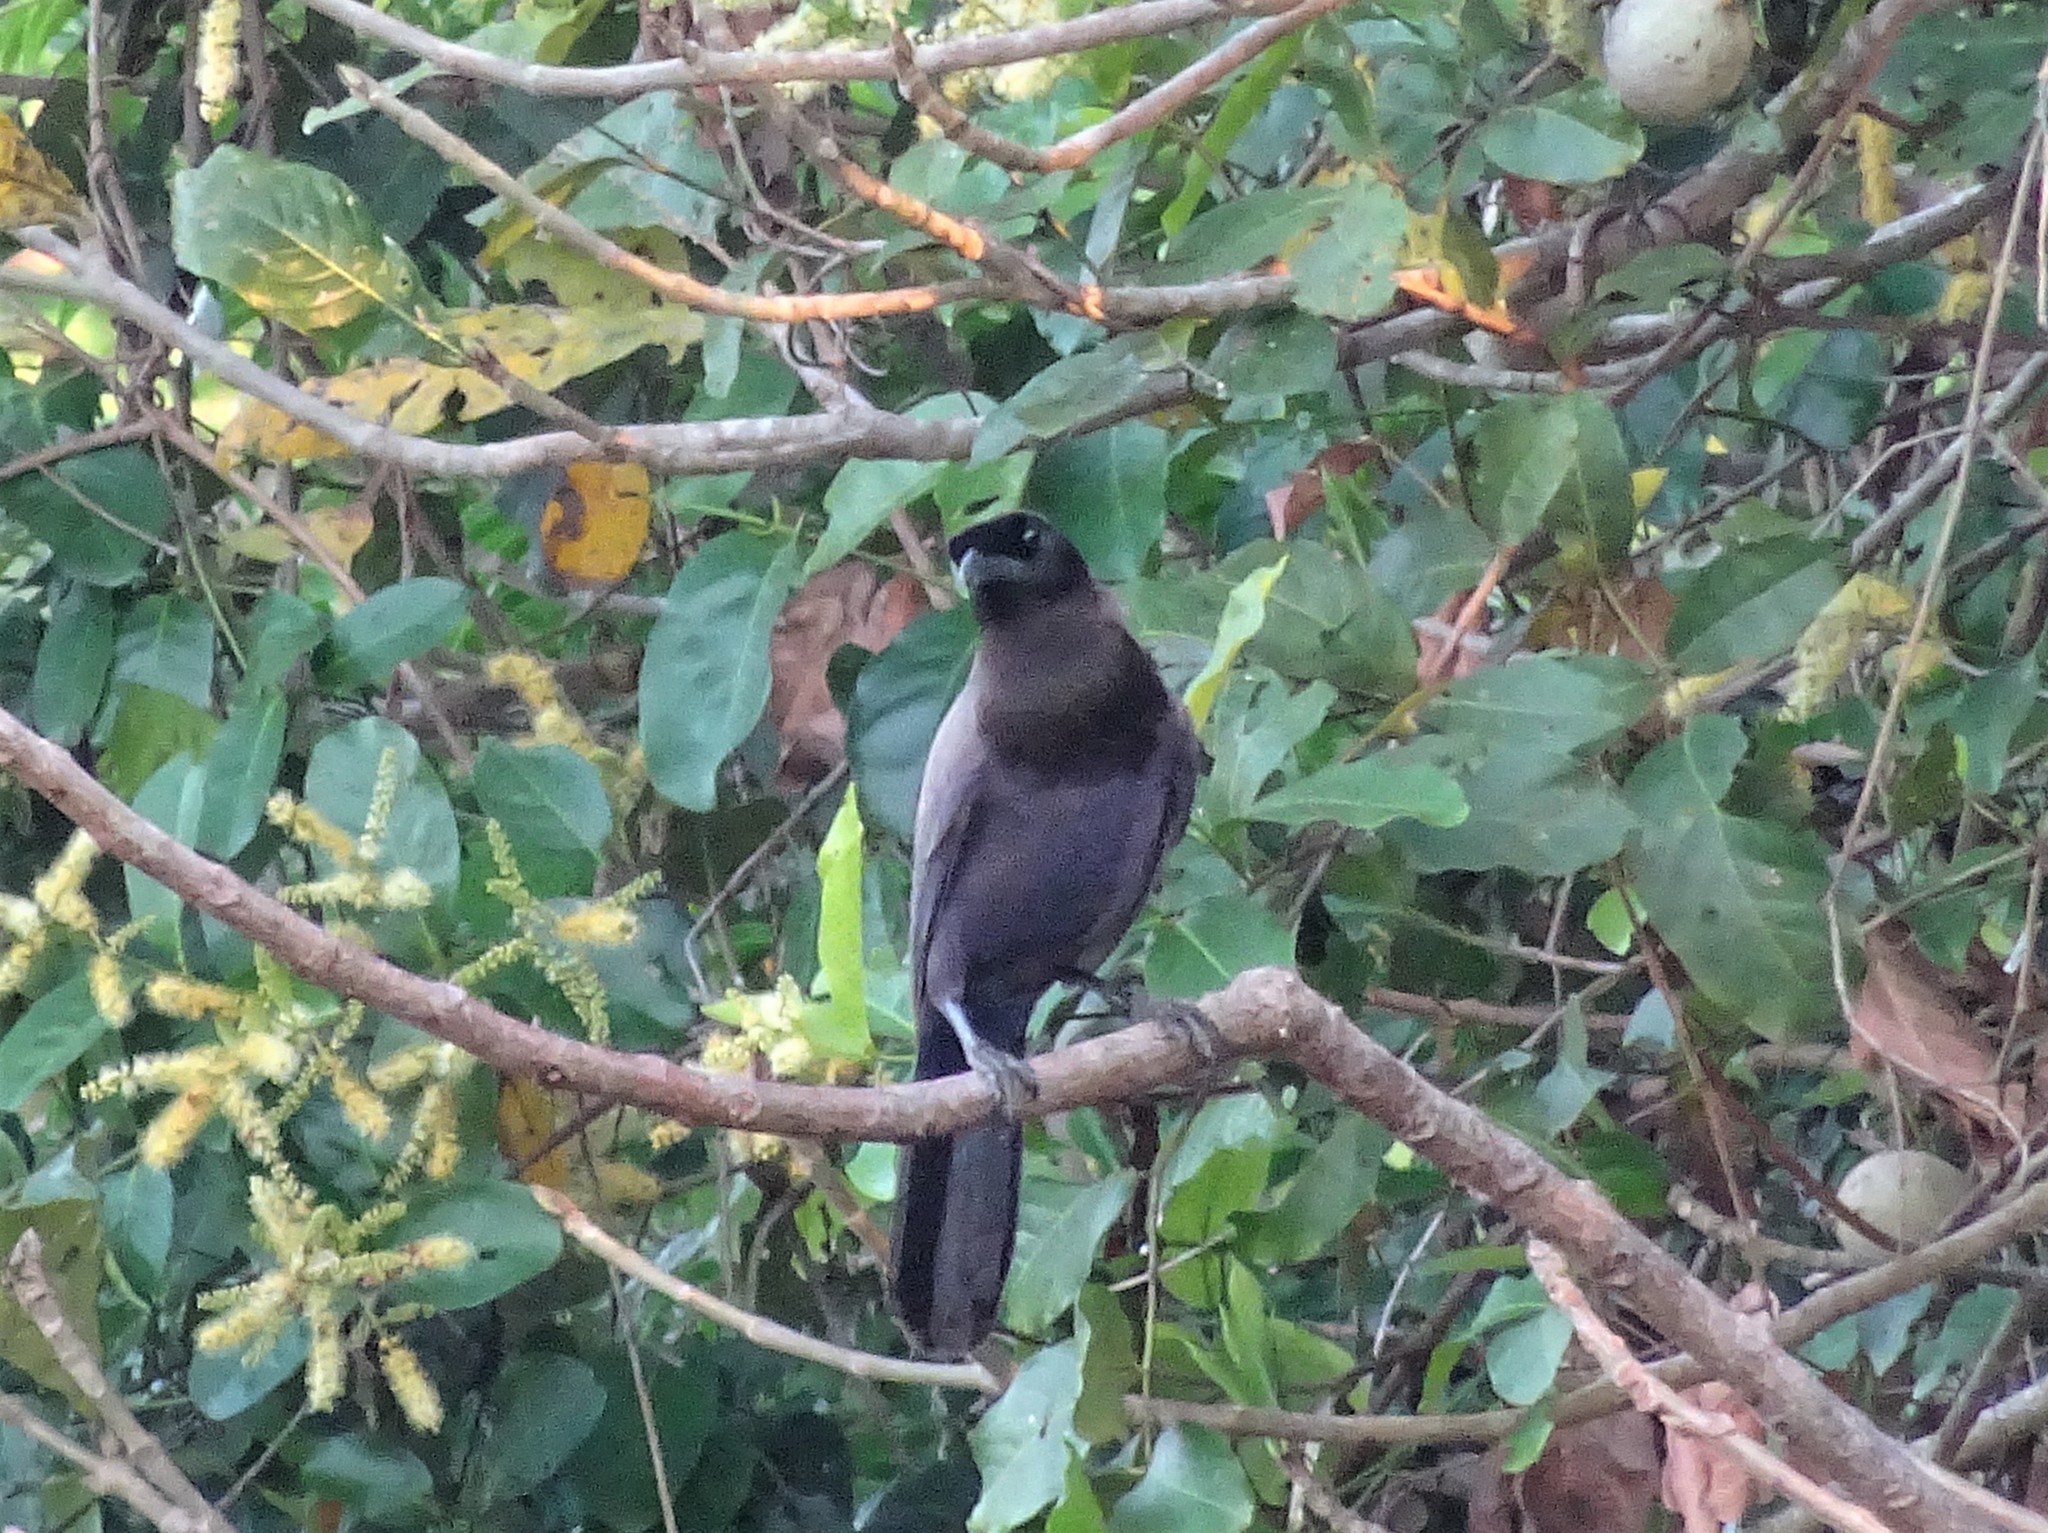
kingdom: Animalia
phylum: Chordata
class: Aves
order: Passeriformes
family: Corvidae
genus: Cyanocorax
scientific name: Cyanocorax cyanomelas
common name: Purplish jay
